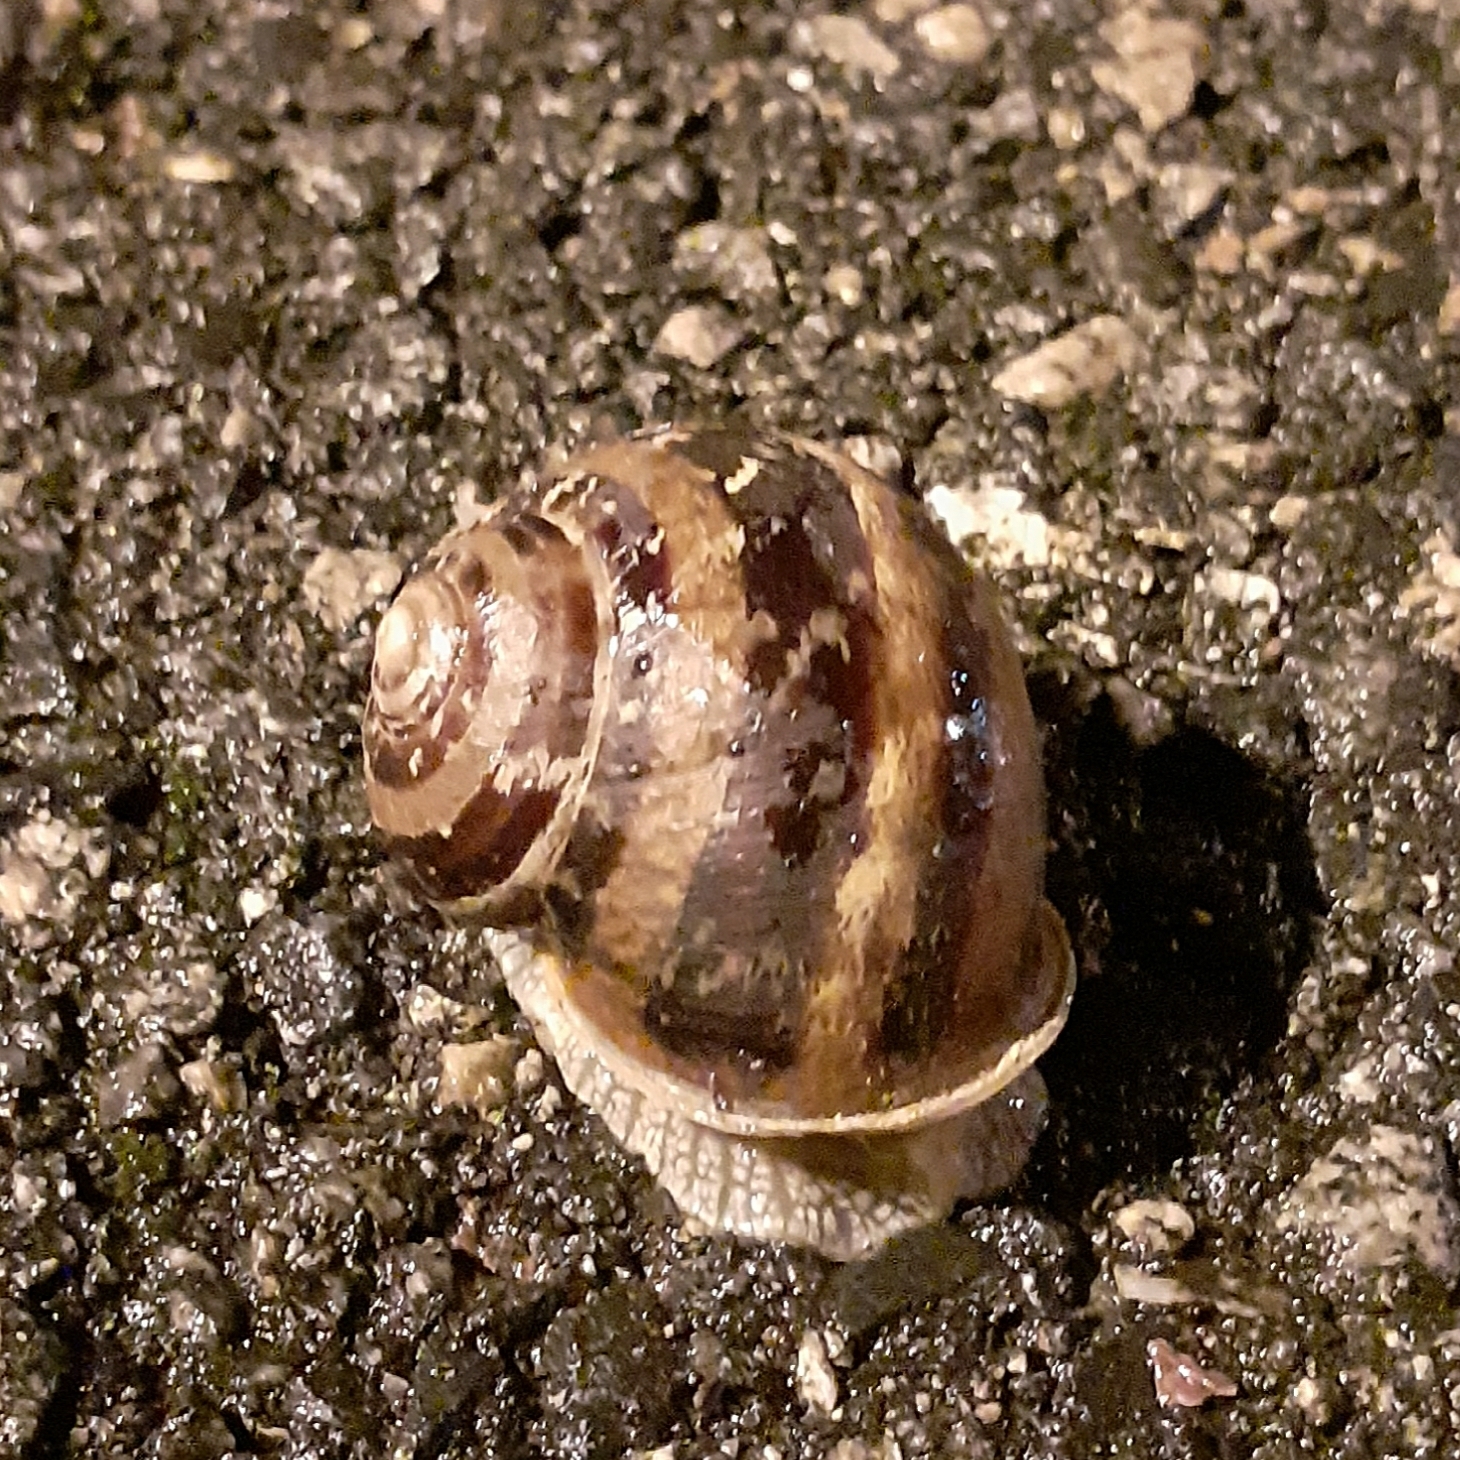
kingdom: Animalia
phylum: Mollusca
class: Gastropoda
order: Stylommatophora
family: Helicidae
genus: Cornu
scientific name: Cornu aspersum
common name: Brown garden snail
